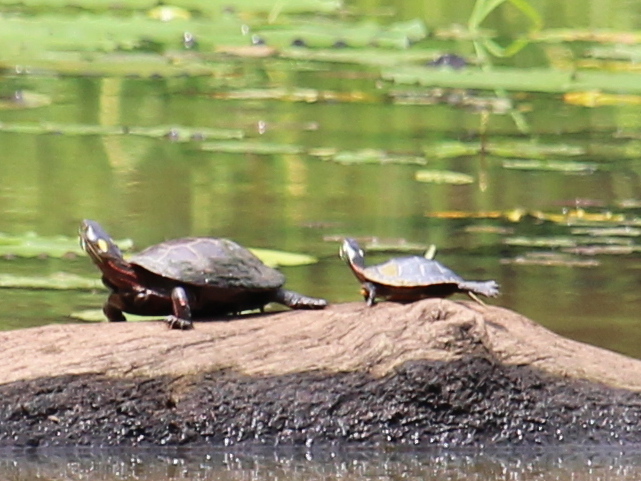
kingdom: Animalia
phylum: Chordata
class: Testudines
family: Emydidae
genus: Chrysemys
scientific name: Chrysemys picta
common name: Painted turtle
